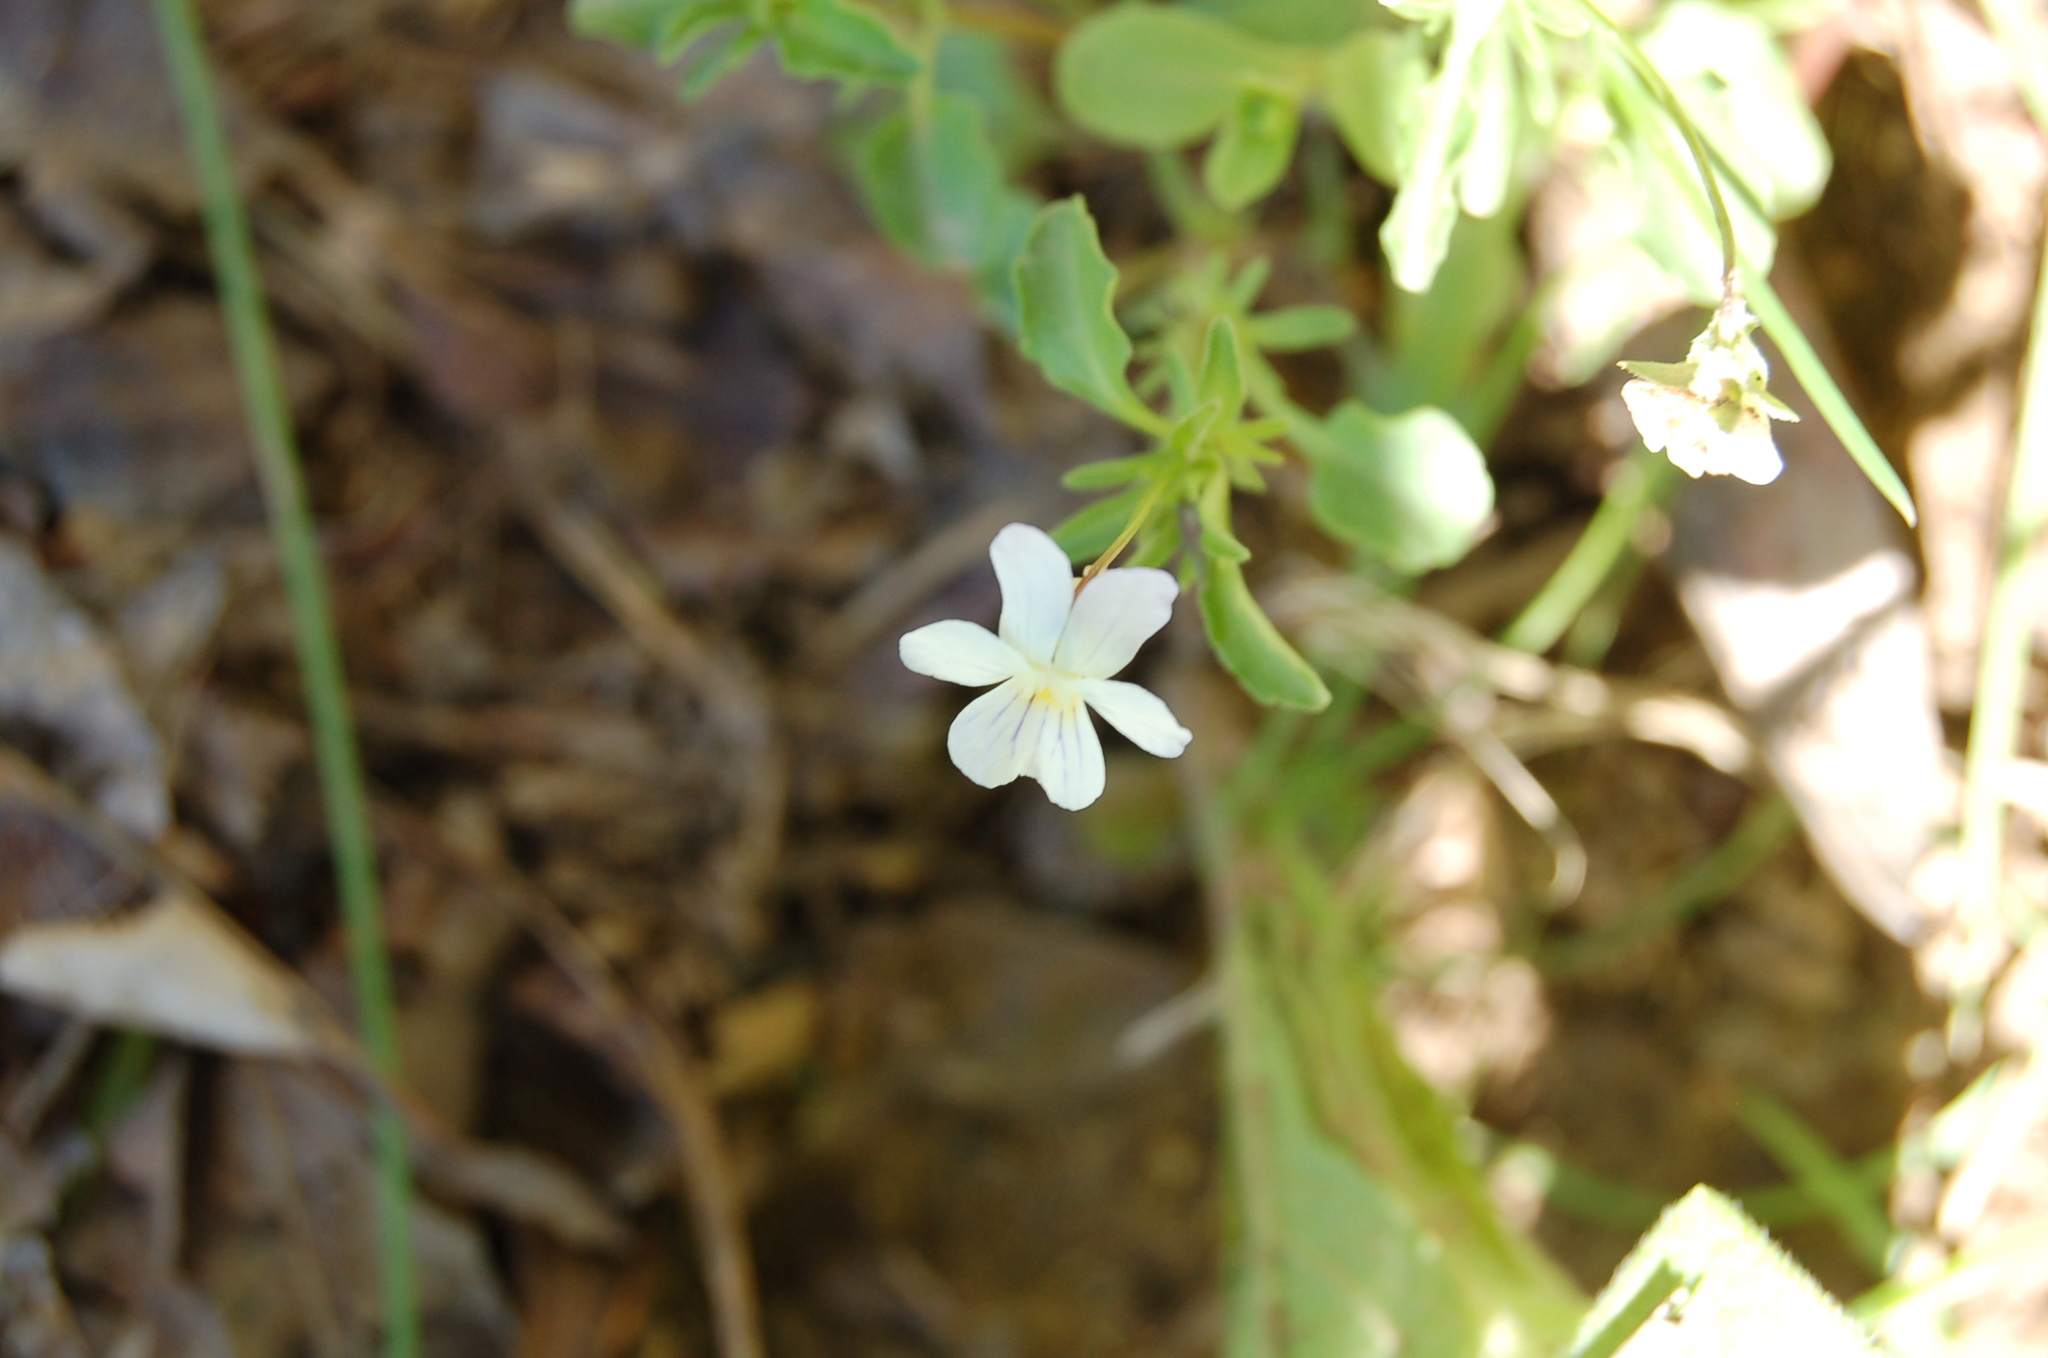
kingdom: Plantae
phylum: Tracheophyta
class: Magnoliopsida
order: Malpighiales
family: Violaceae
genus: Viola
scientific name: Viola rafinesquei
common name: American field pansy
